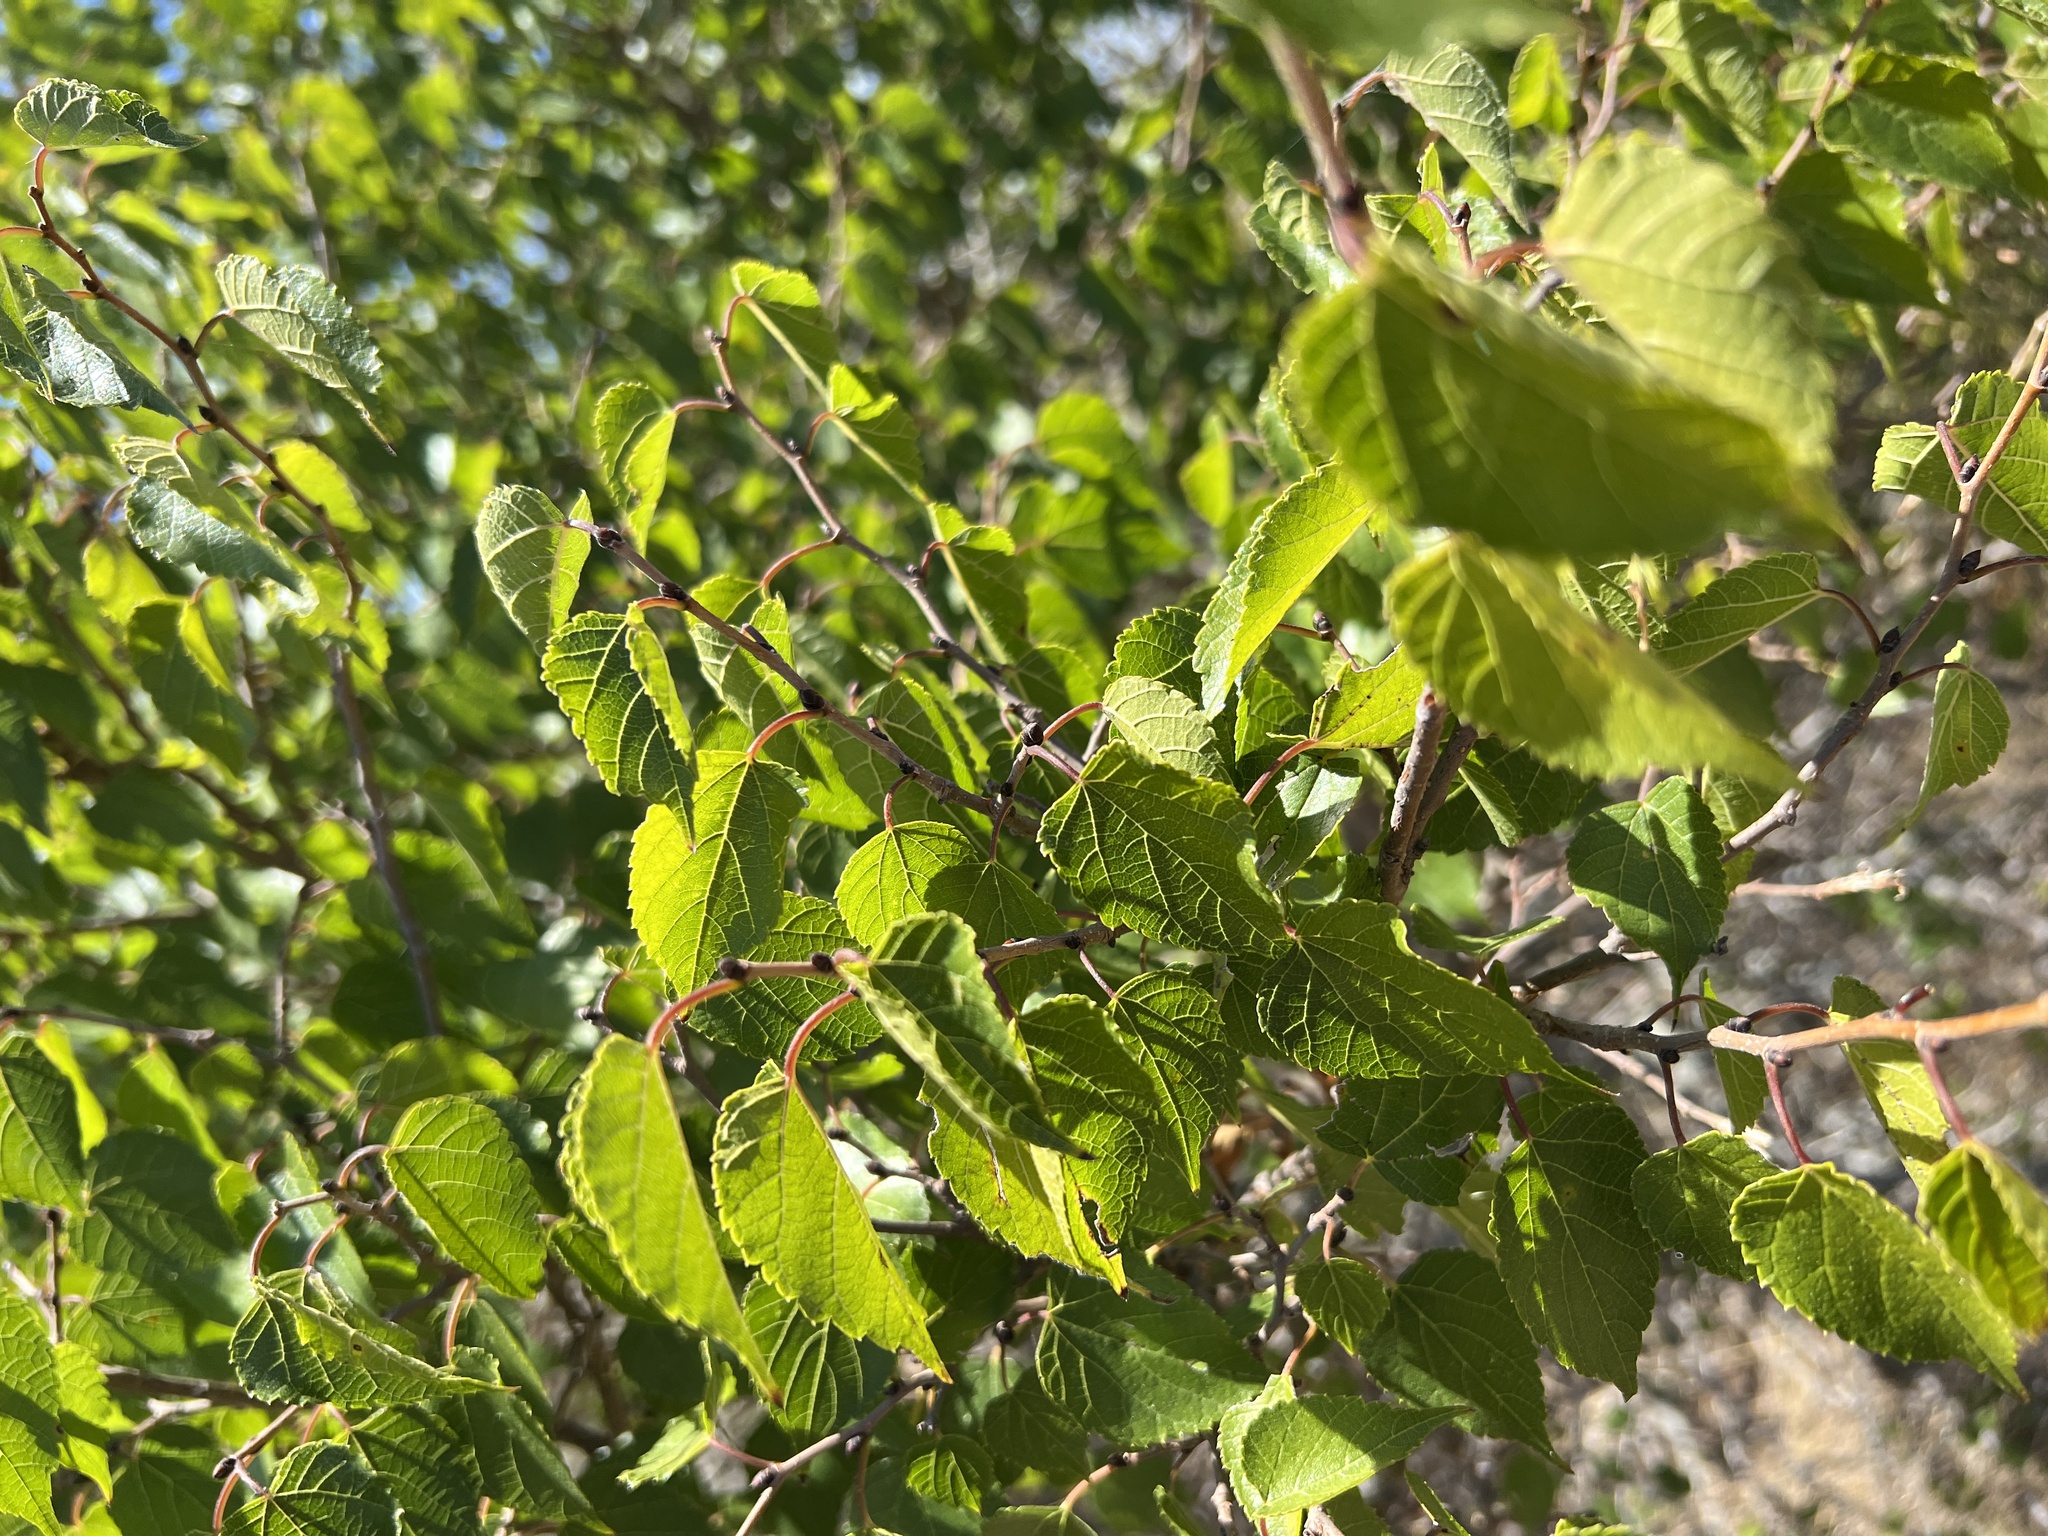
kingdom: Plantae
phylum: Tracheophyta
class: Magnoliopsida
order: Rosales
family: Moraceae
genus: Morus
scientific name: Morus microphylla
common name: Mexican mulberry
